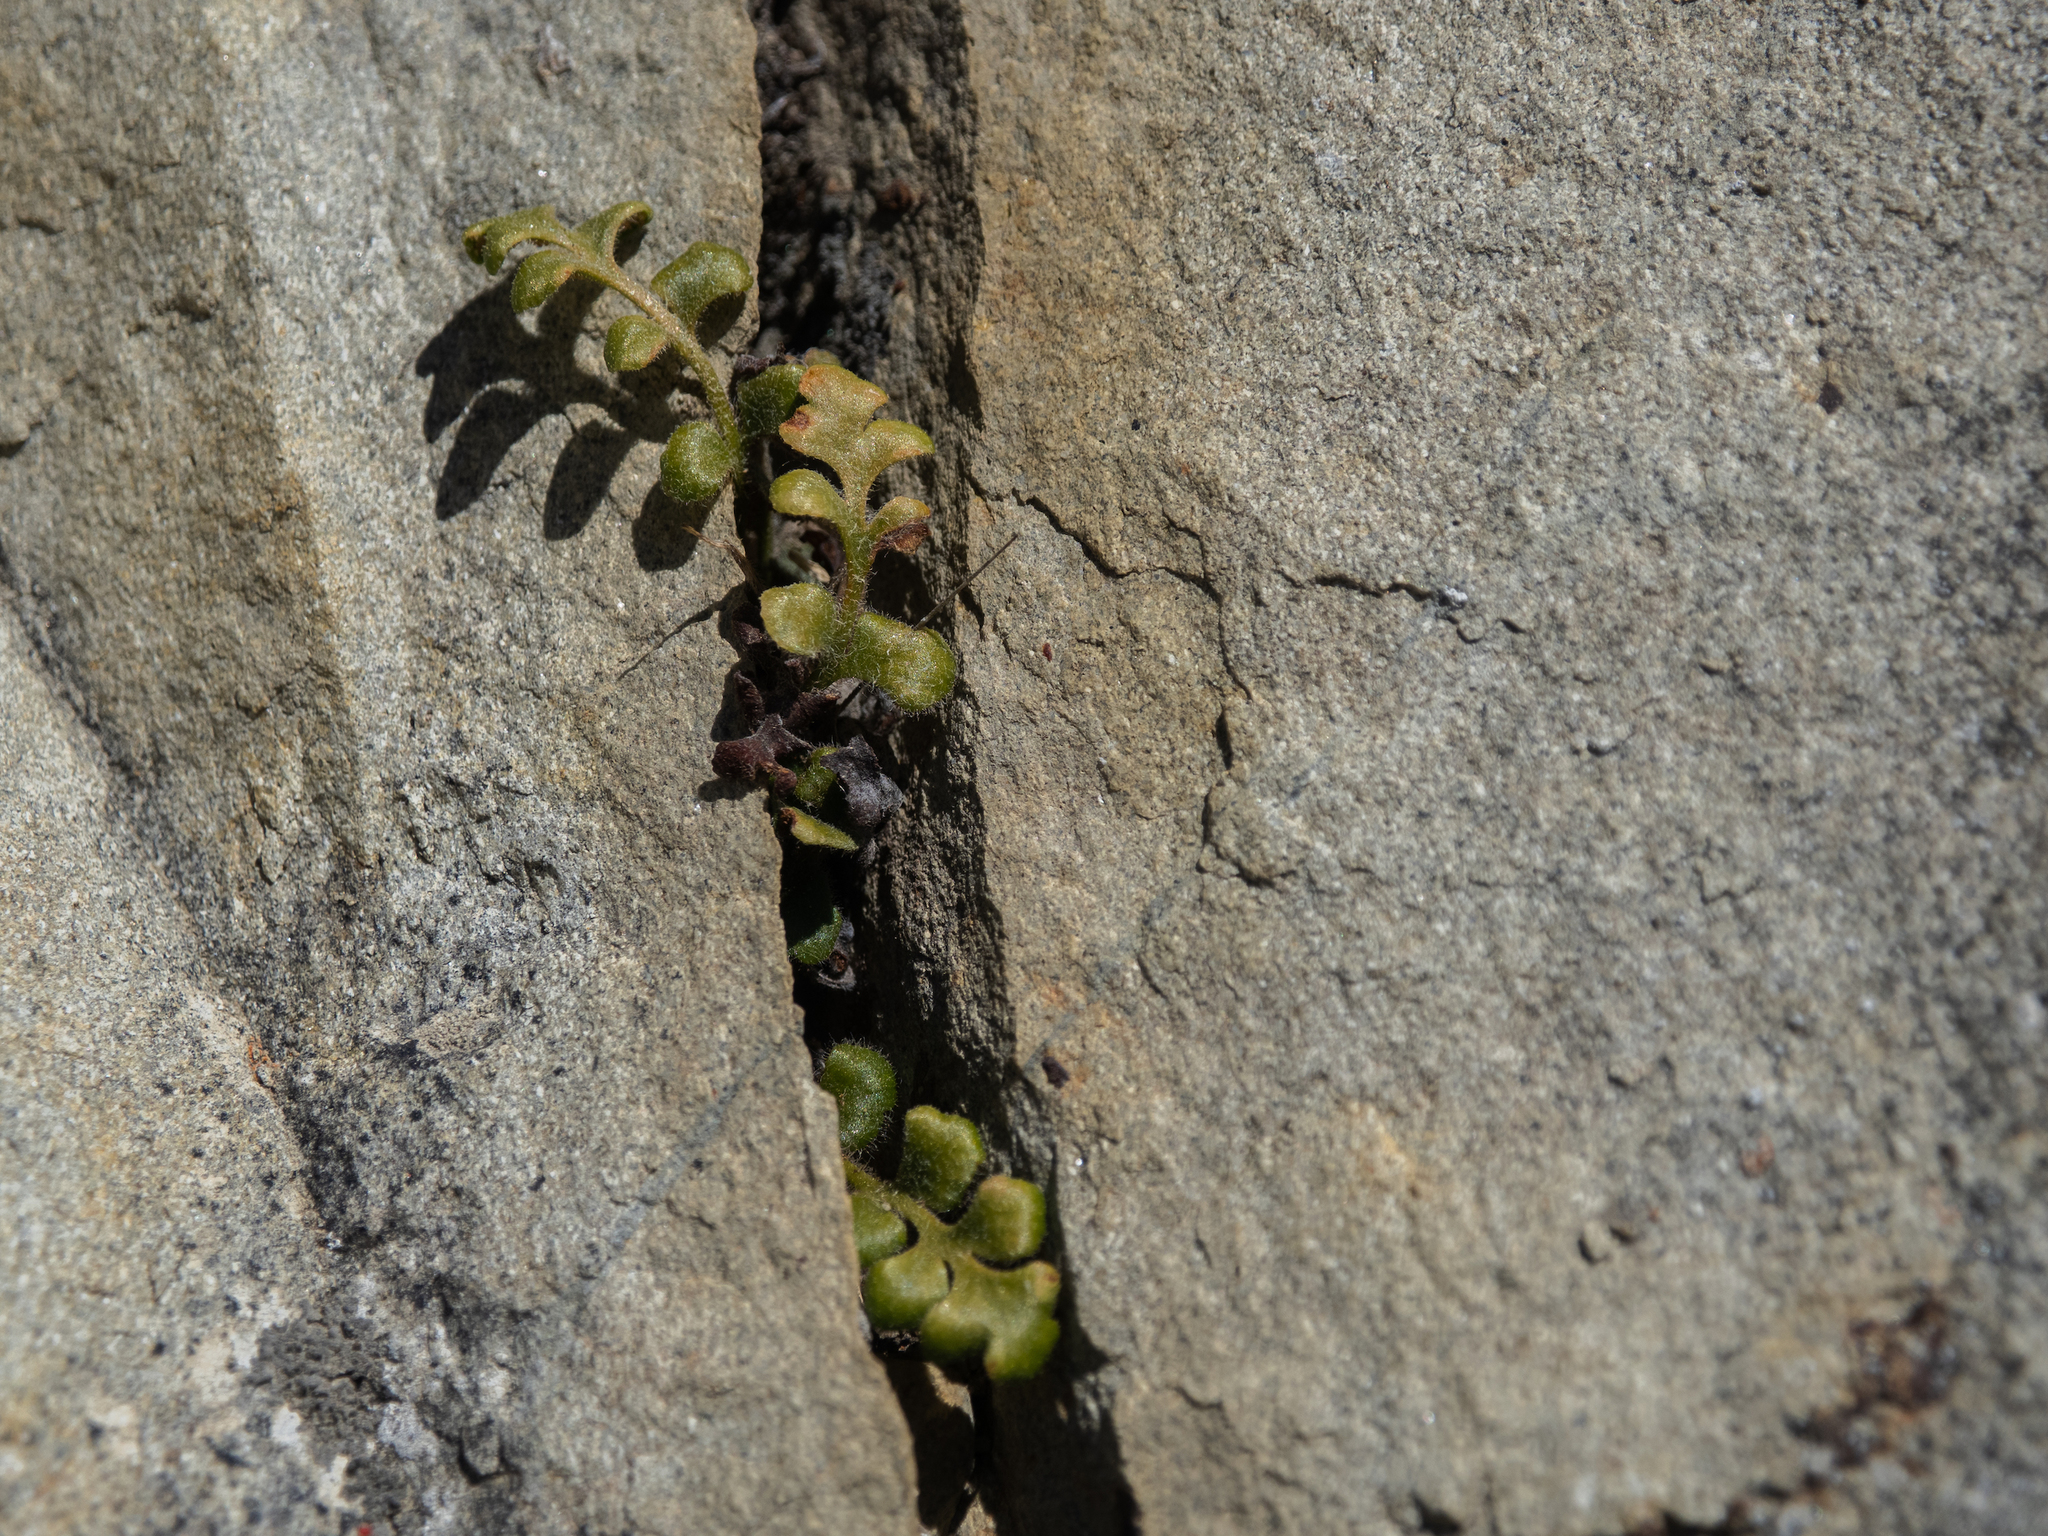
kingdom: Plantae
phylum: Tracheophyta
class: Polypodiopsida
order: Polypodiales
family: Aspleniaceae
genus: Asplenium
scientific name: Asplenium subglandulosum
